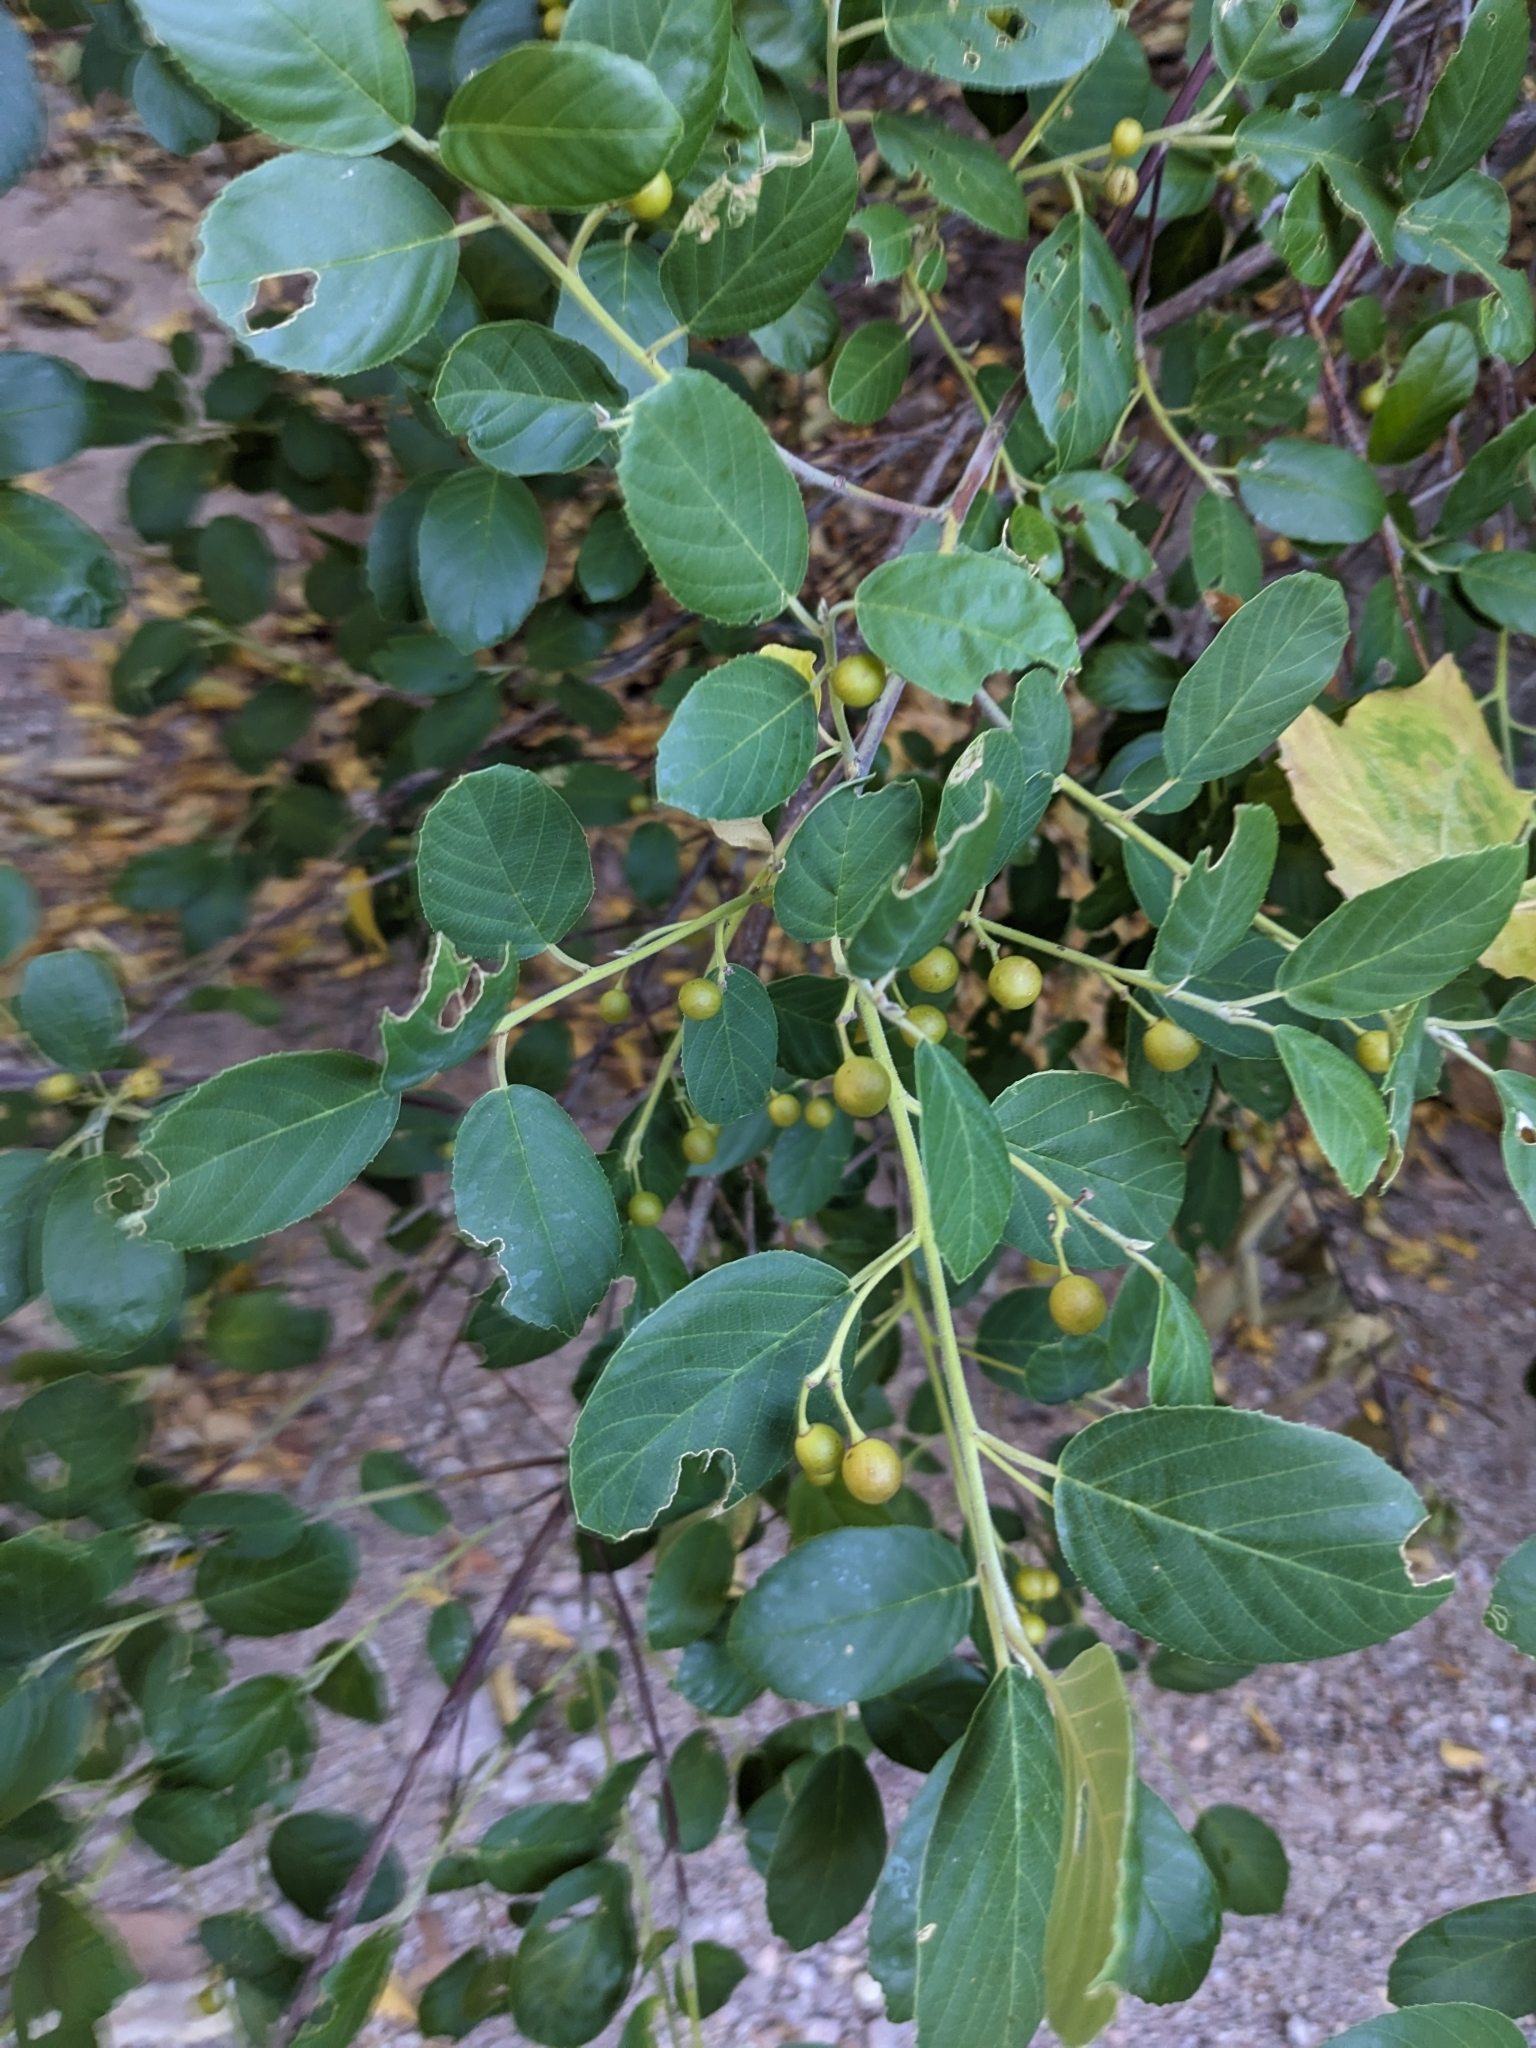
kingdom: Plantae
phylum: Tracheophyta
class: Magnoliopsida
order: Rosales
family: Rhamnaceae
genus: Frangula
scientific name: Frangula californica
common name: California buckthorn
